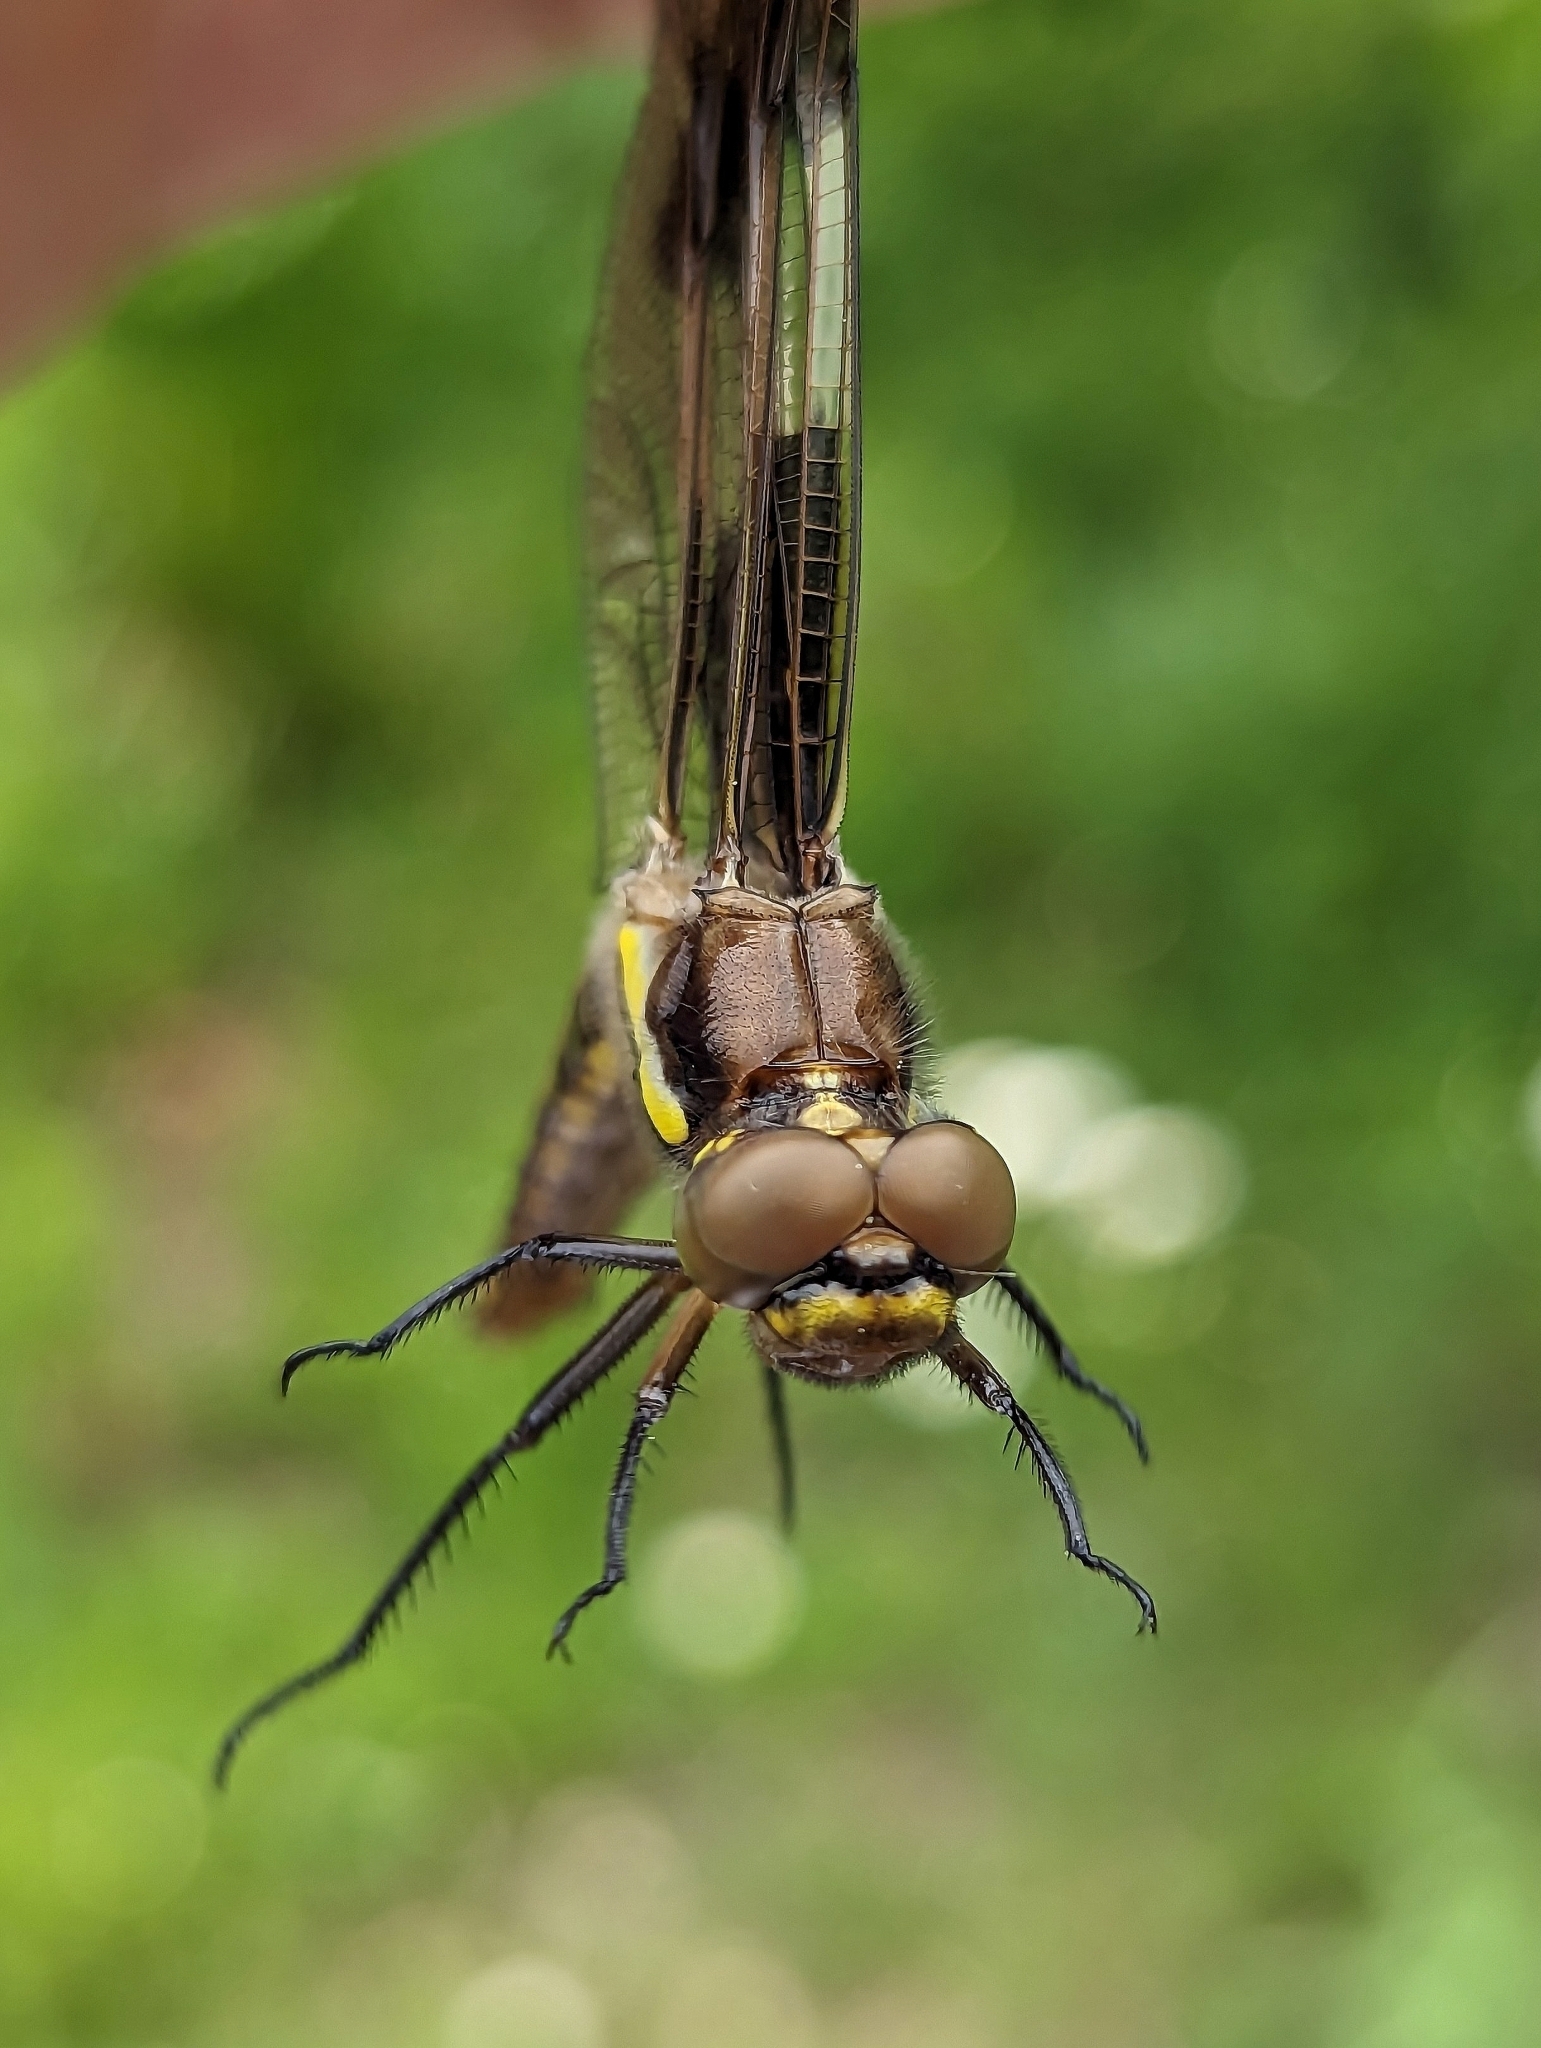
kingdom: Animalia
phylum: Arthropoda
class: Insecta
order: Odonata
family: Libellulidae
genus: Libellula
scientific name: Libellula pulchella
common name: Twelve-spotted skimmer
